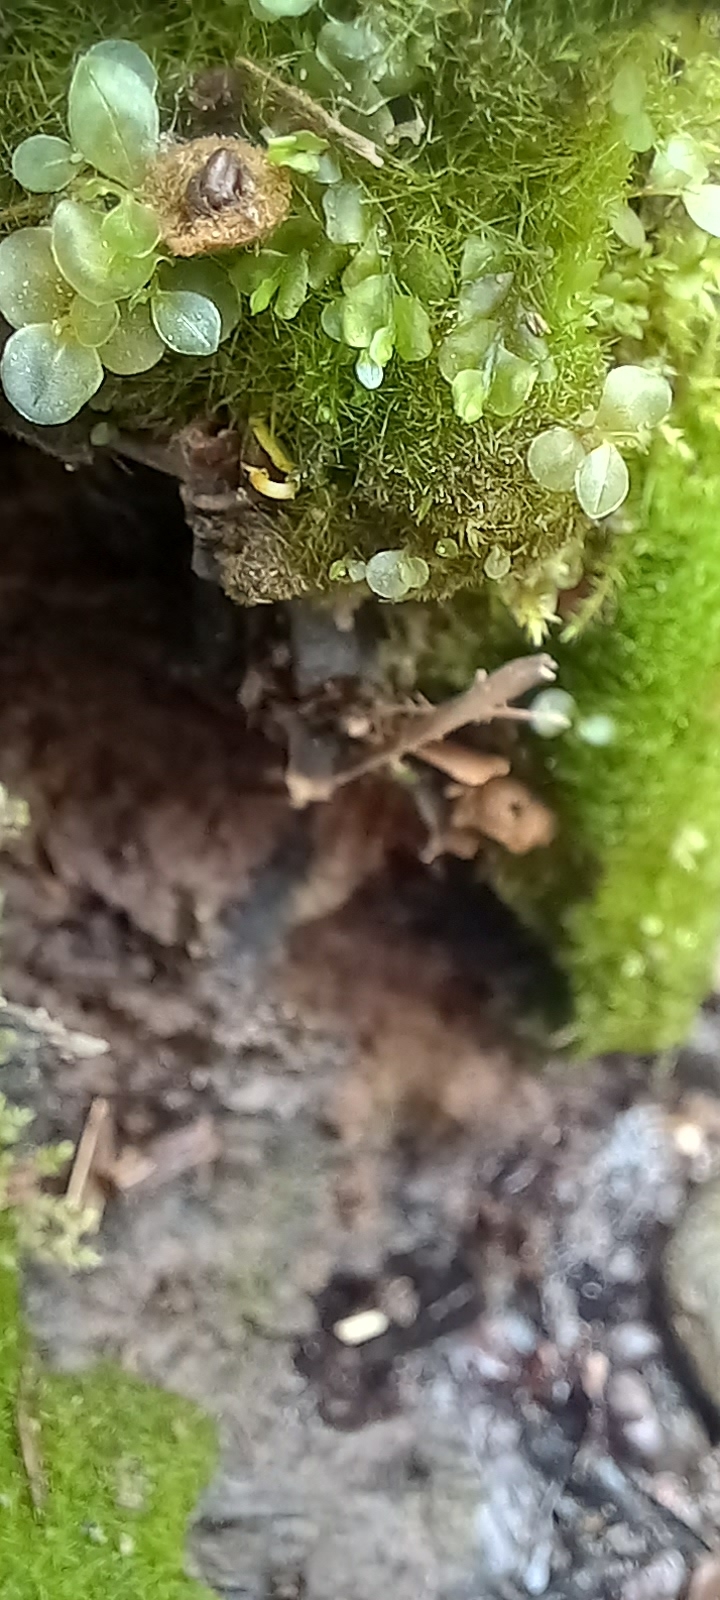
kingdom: Plantae
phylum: Bryophyta
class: Bryopsida
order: Bryales
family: Mniaceae
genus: Rhizomnium
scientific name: Rhizomnium punctatum
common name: Dotted leafy moss
